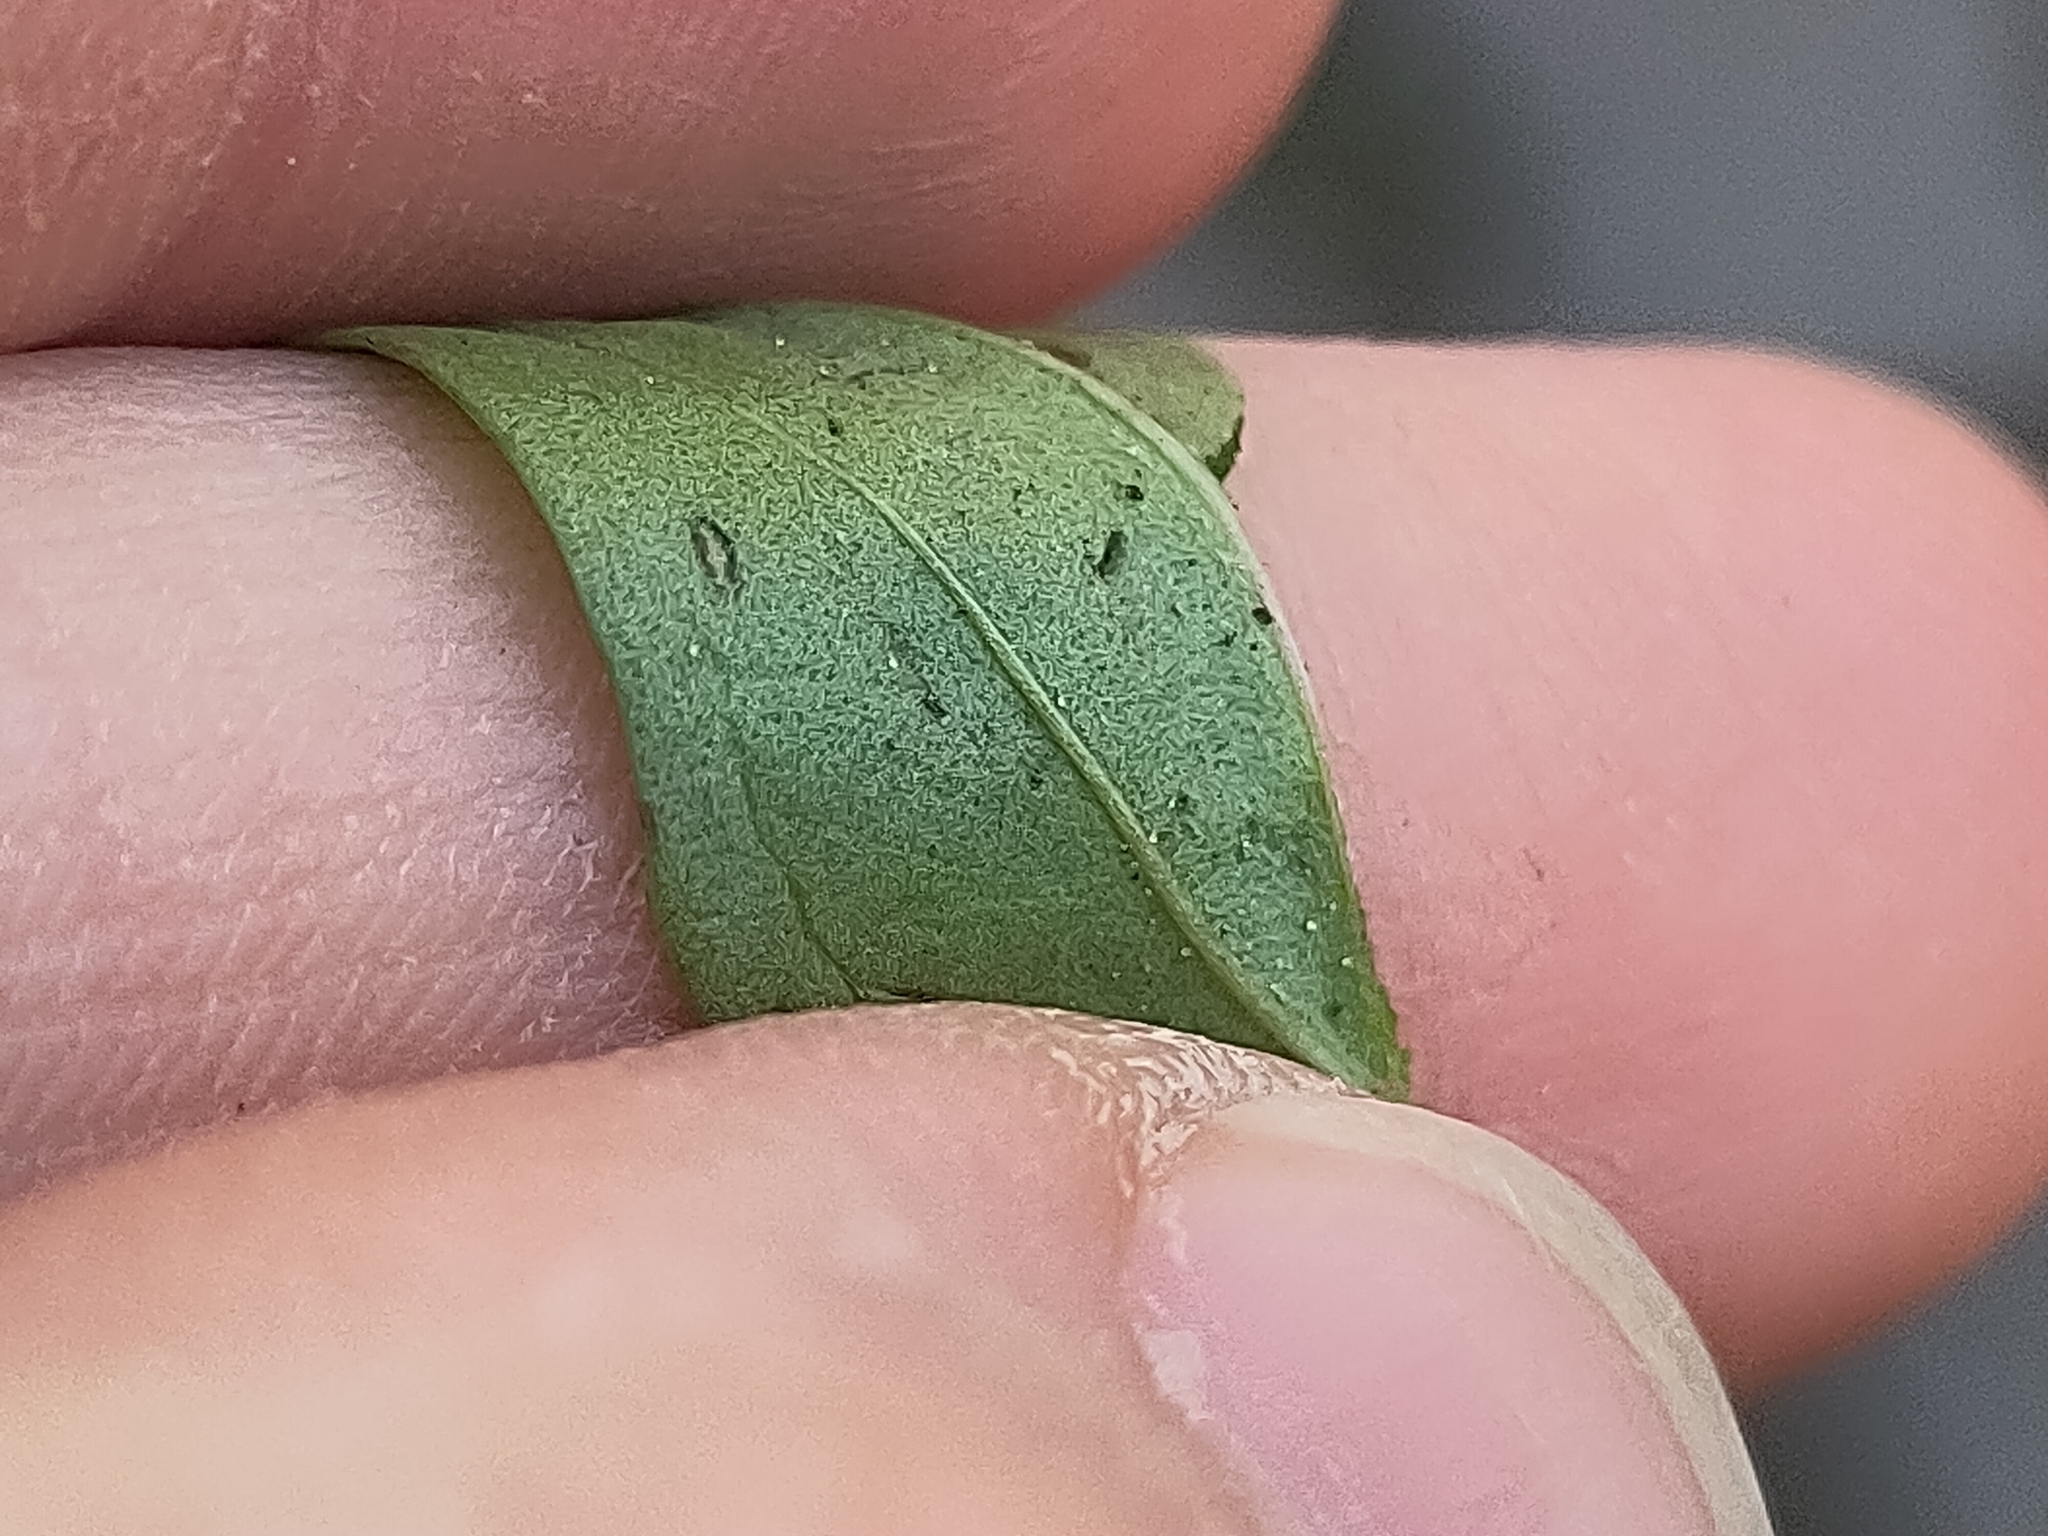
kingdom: Plantae
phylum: Tracheophyta
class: Magnoliopsida
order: Lamiales
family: Plantaginaceae
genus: Plantago
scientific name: Plantago major
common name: Common plantain
